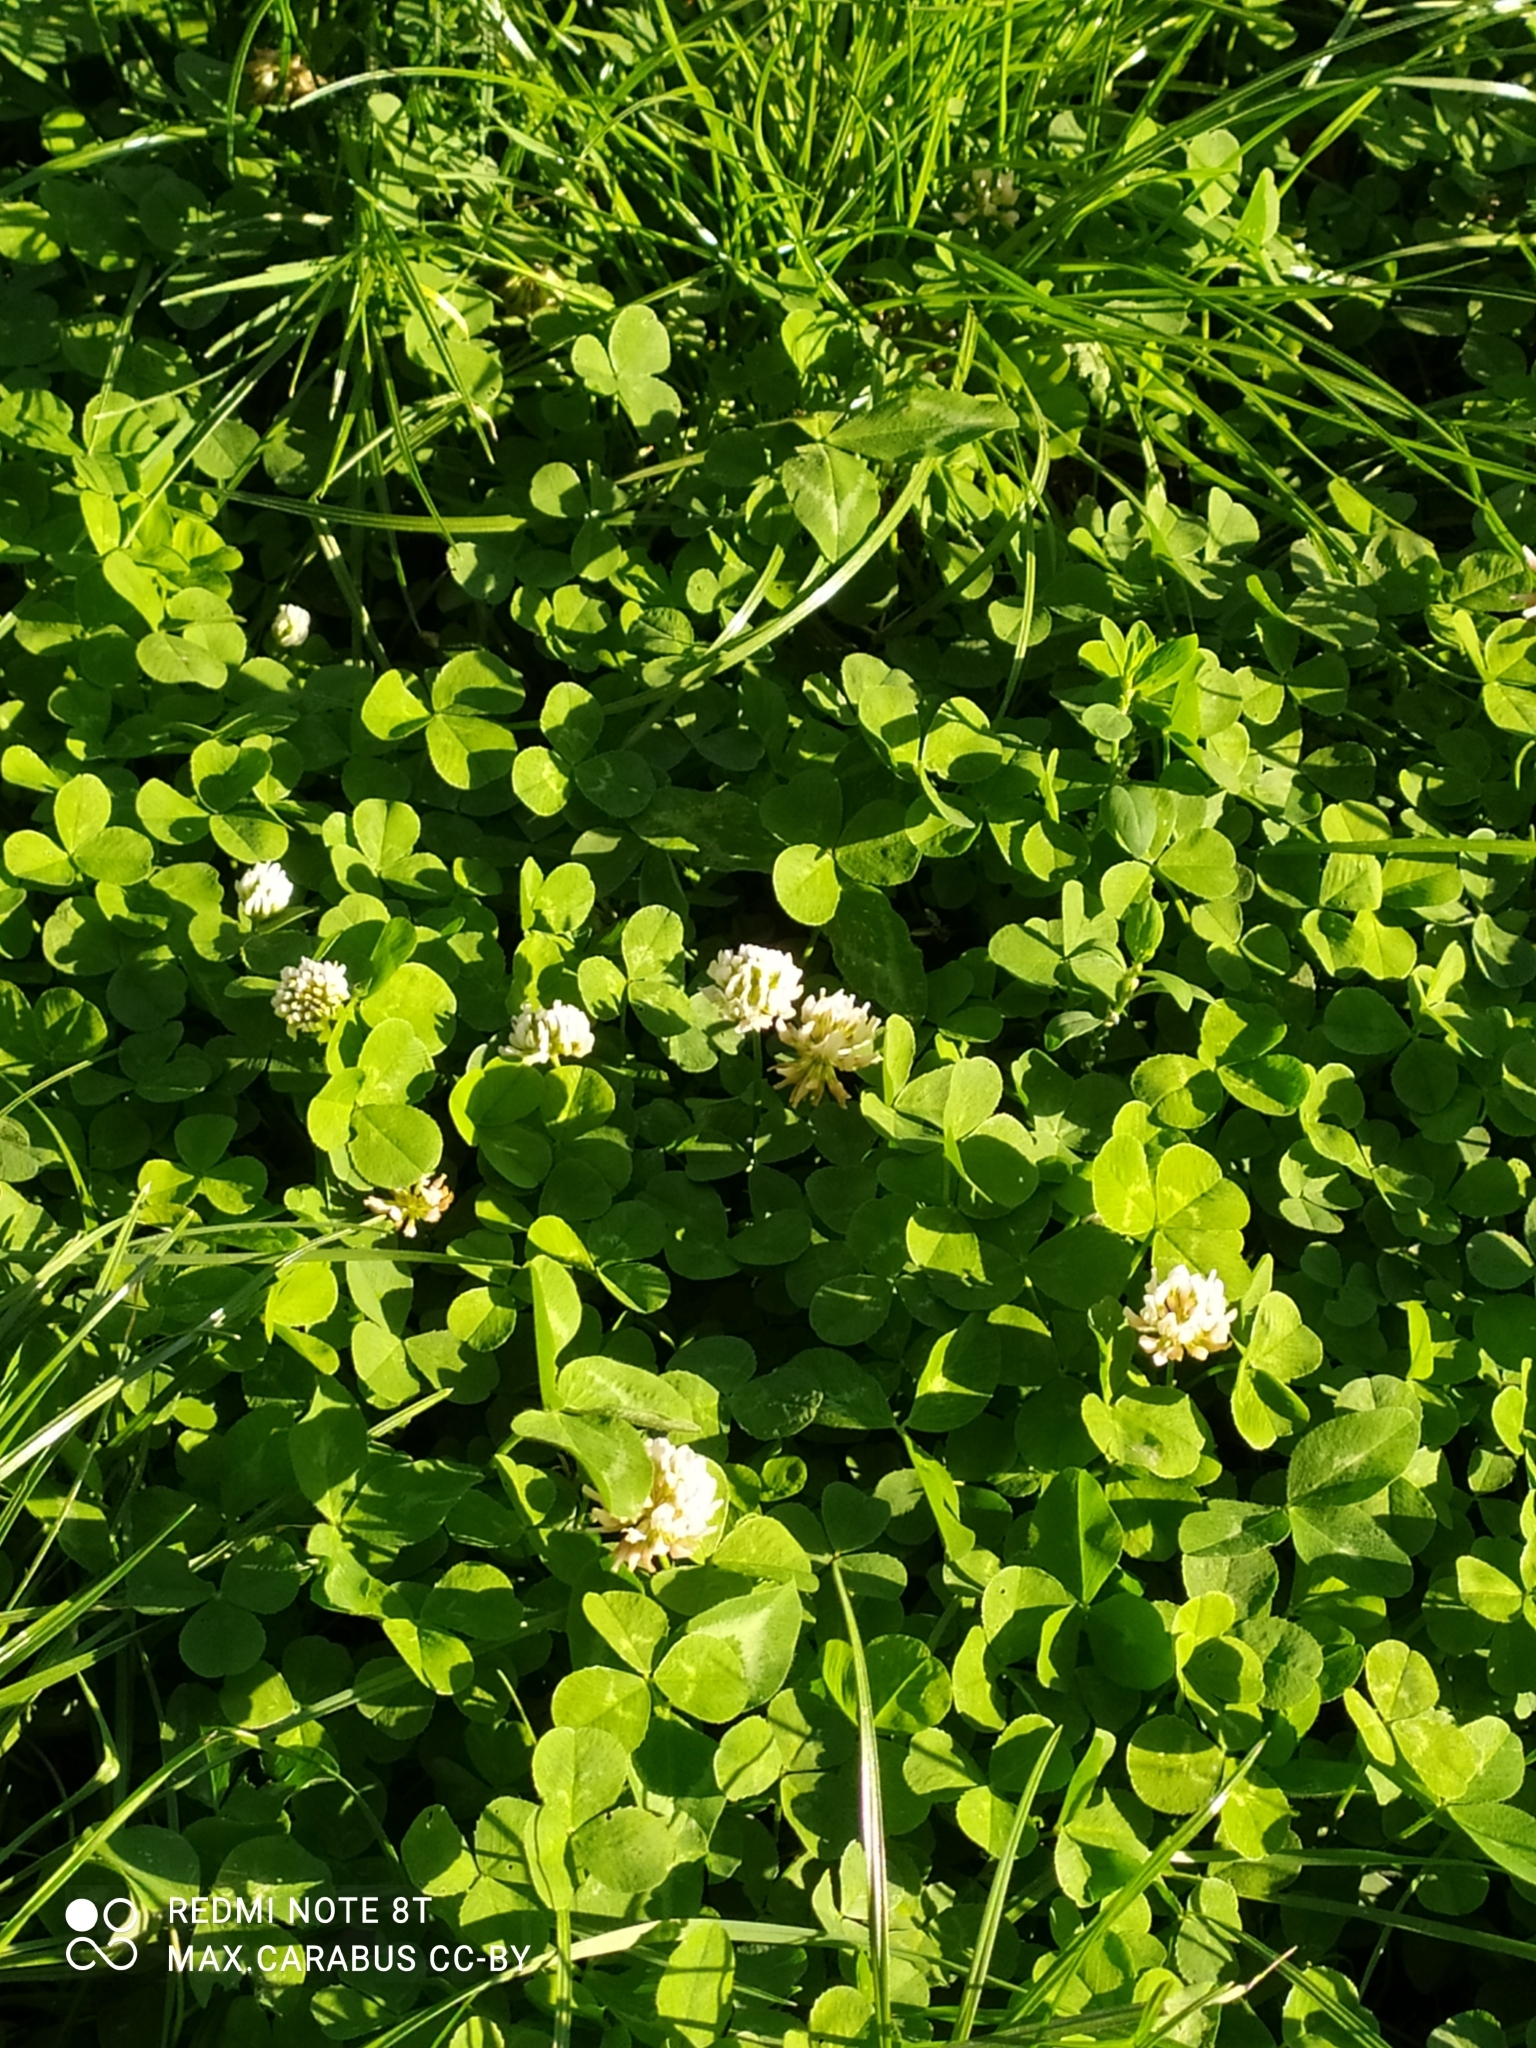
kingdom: Plantae
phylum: Tracheophyta
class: Magnoliopsida
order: Fabales
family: Fabaceae
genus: Trifolium
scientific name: Trifolium repens
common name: White clover
